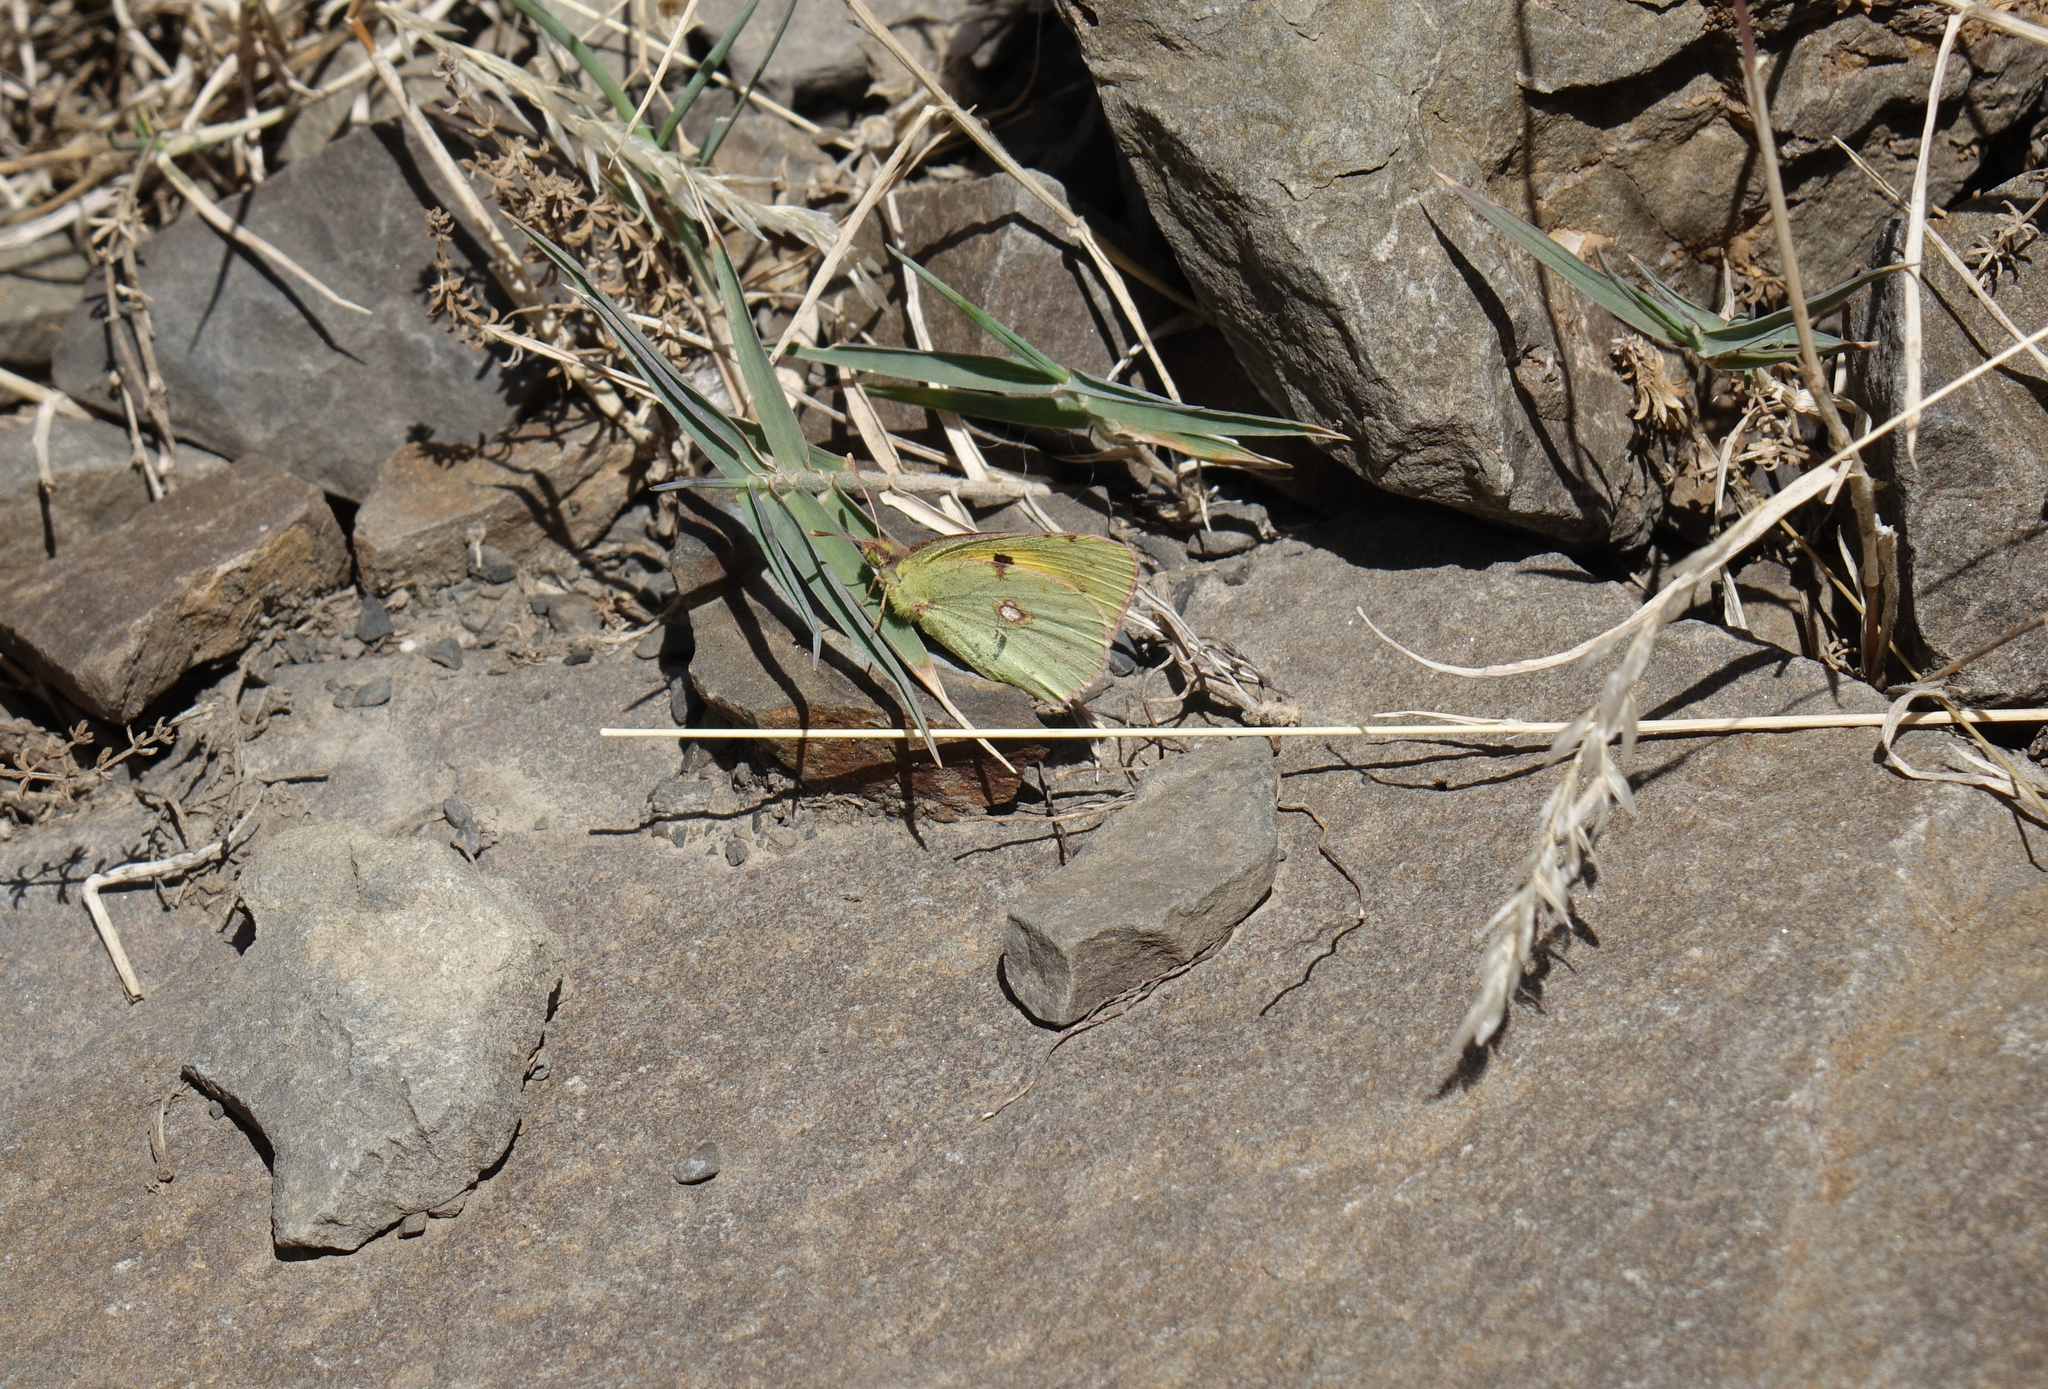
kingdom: Animalia
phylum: Arthropoda
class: Insecta
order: Lepidoptera
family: Pieridae
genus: Colias
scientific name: Colias croceus
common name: Clouded yellow
